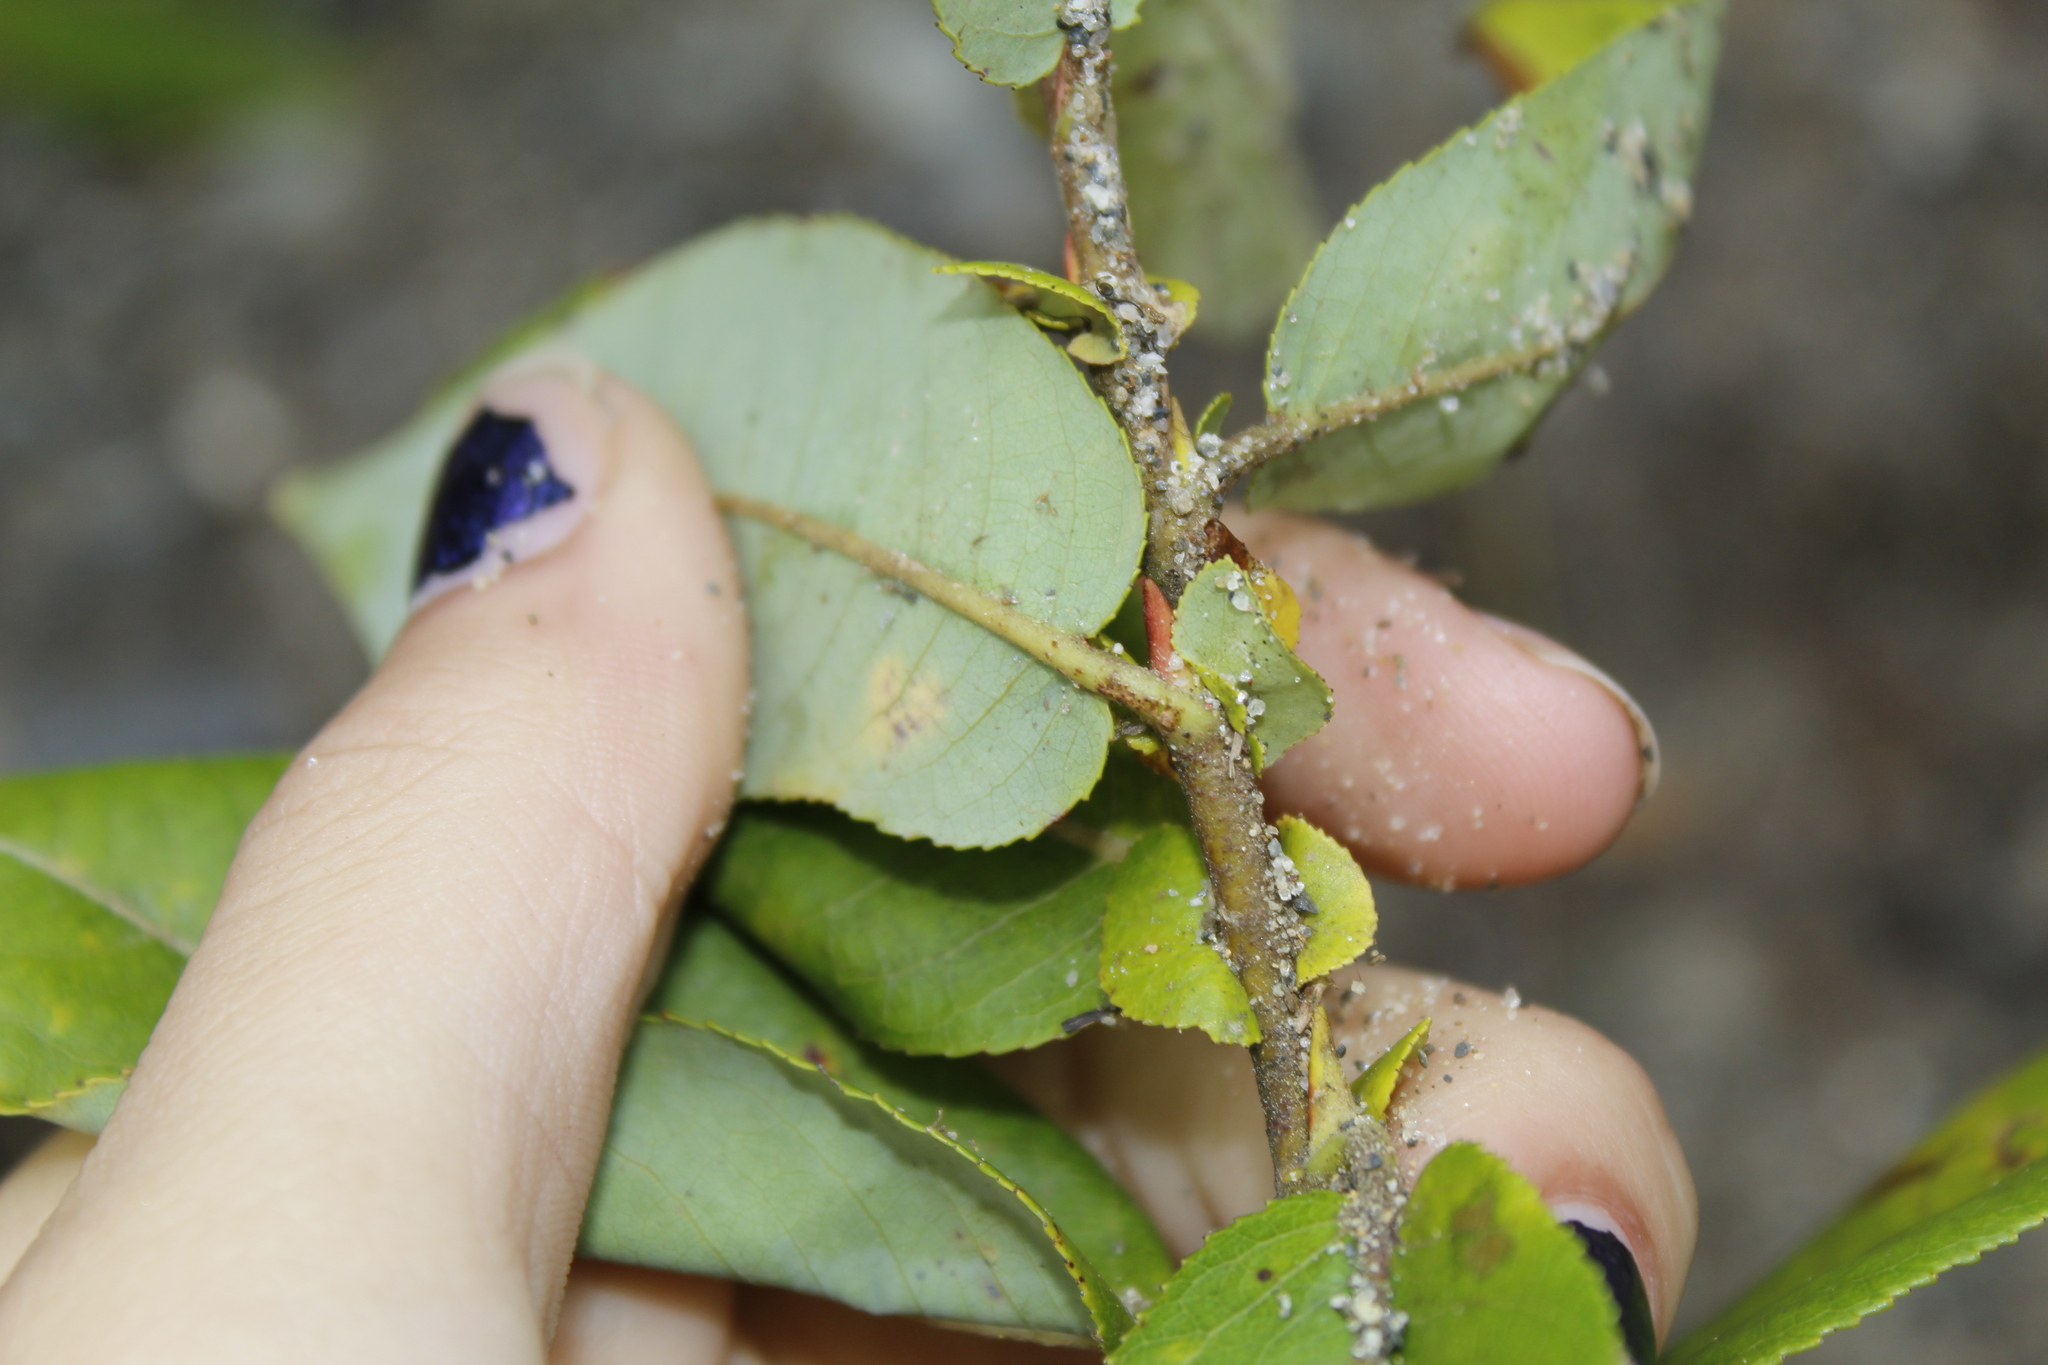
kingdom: Plantae
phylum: Tracheophyta
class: Magnoliopsida
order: Malpighiales
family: Salicaceae
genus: Salix
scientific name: Salix eriocephala
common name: Heart-leaved willow
